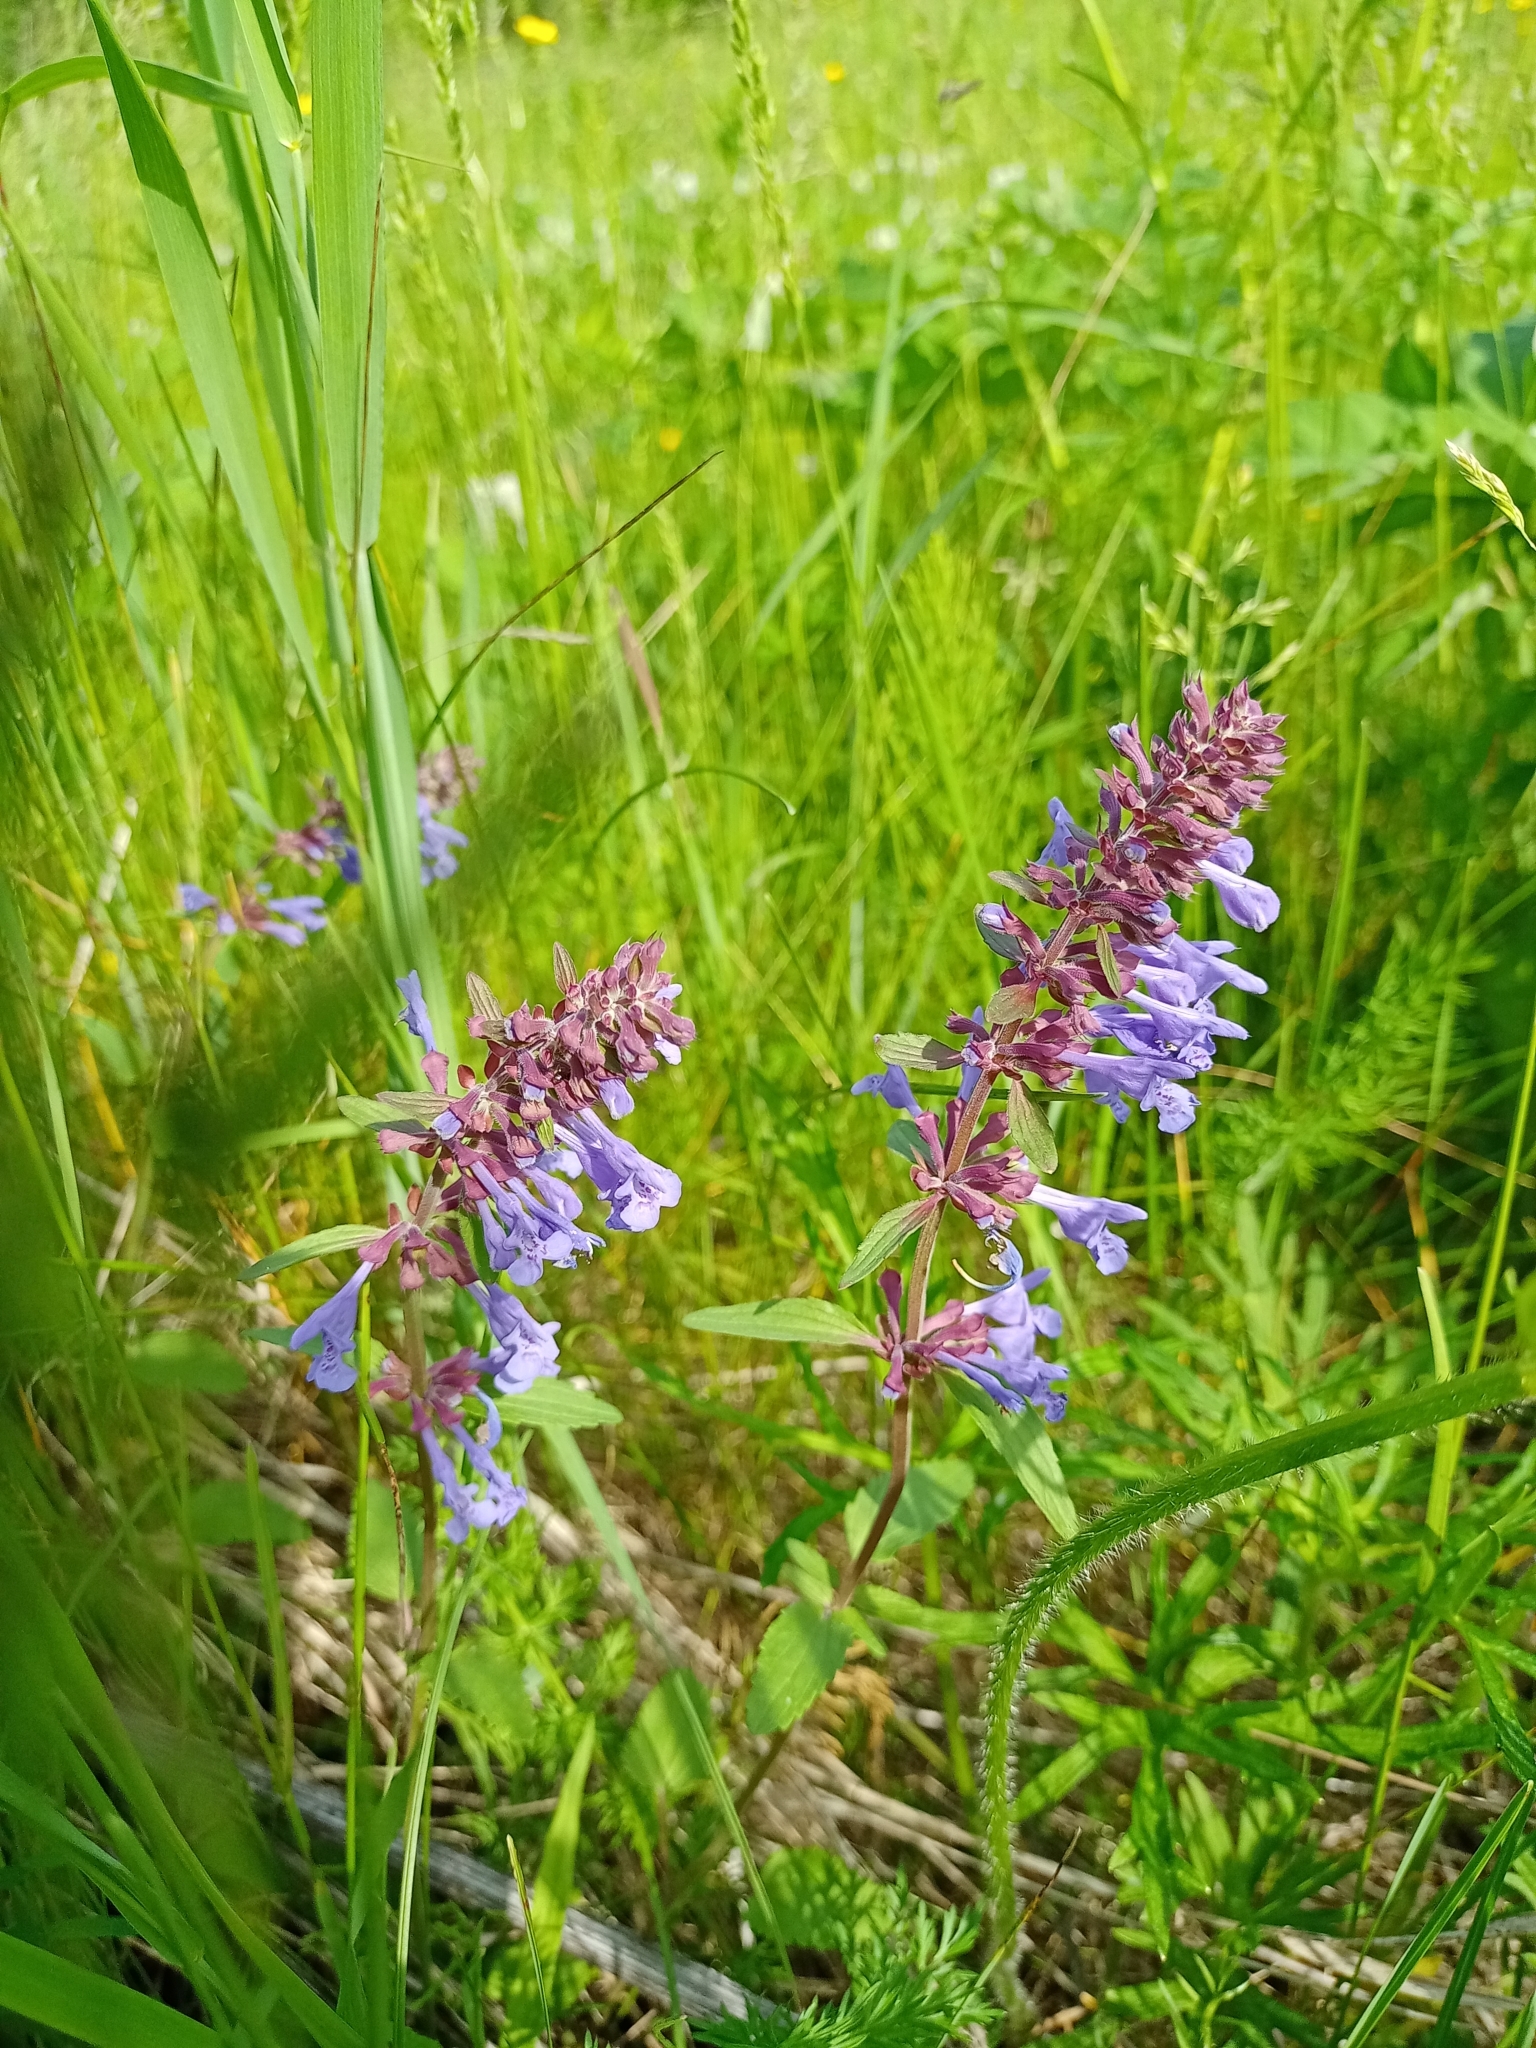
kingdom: Plantae
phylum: Tracheophyta
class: Magnoliopsida
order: Lamiales
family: Lamiaceae
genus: Dracocephalum
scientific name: Dracocephalum nutans
